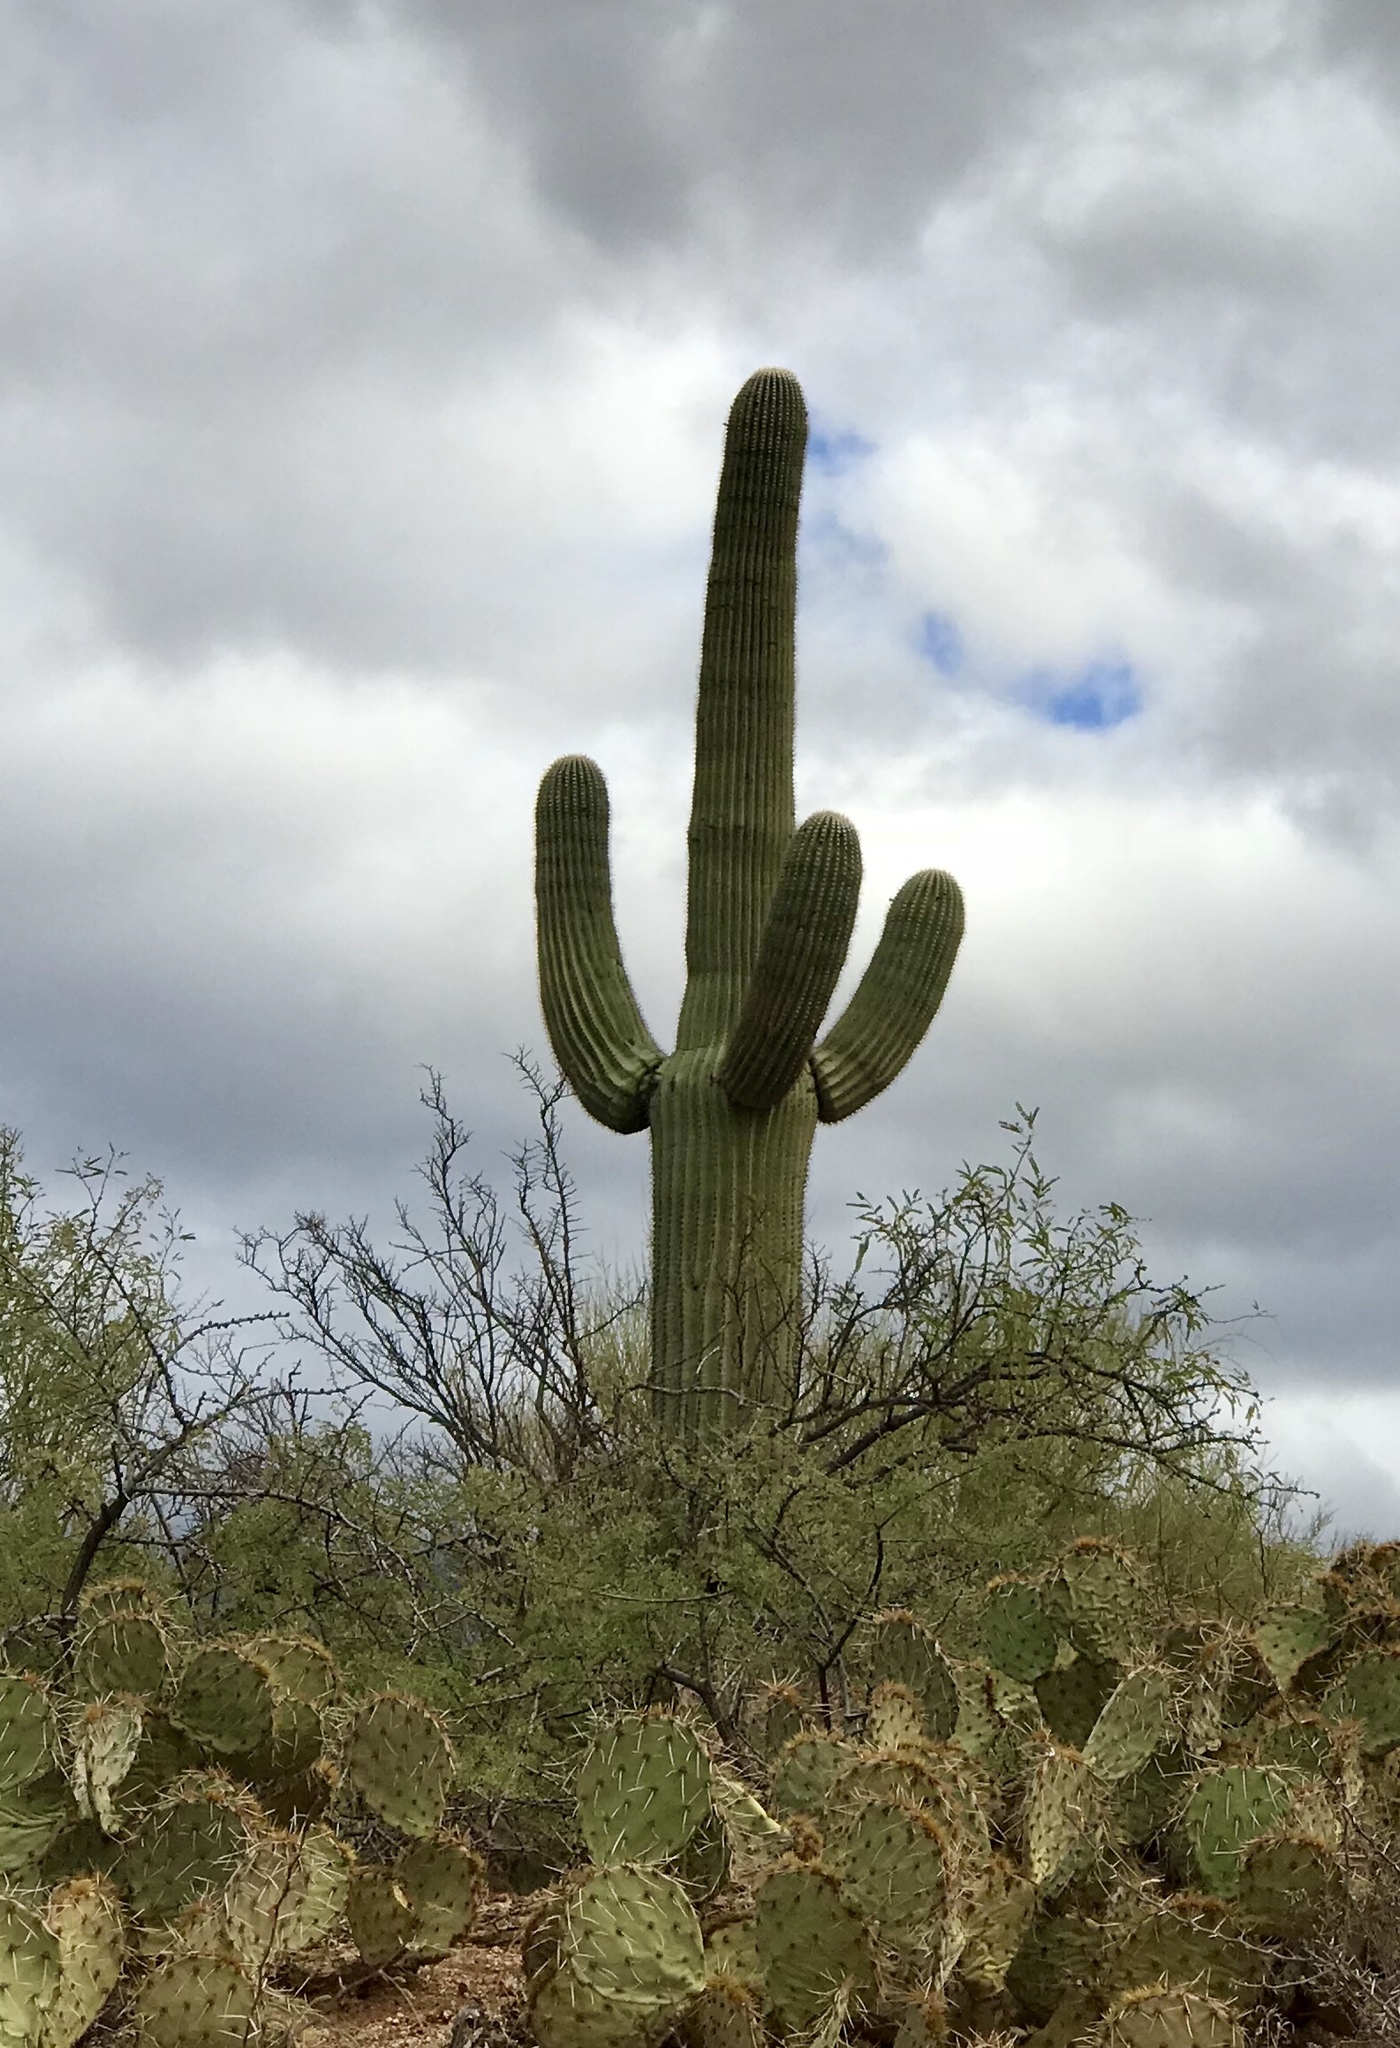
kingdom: Plantae
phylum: Tracheophyta
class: Magnoliopsida
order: Caryophyllales
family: Cactaceae
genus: Carnegiea
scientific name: Carnegiea gigantea
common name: Saguaro
